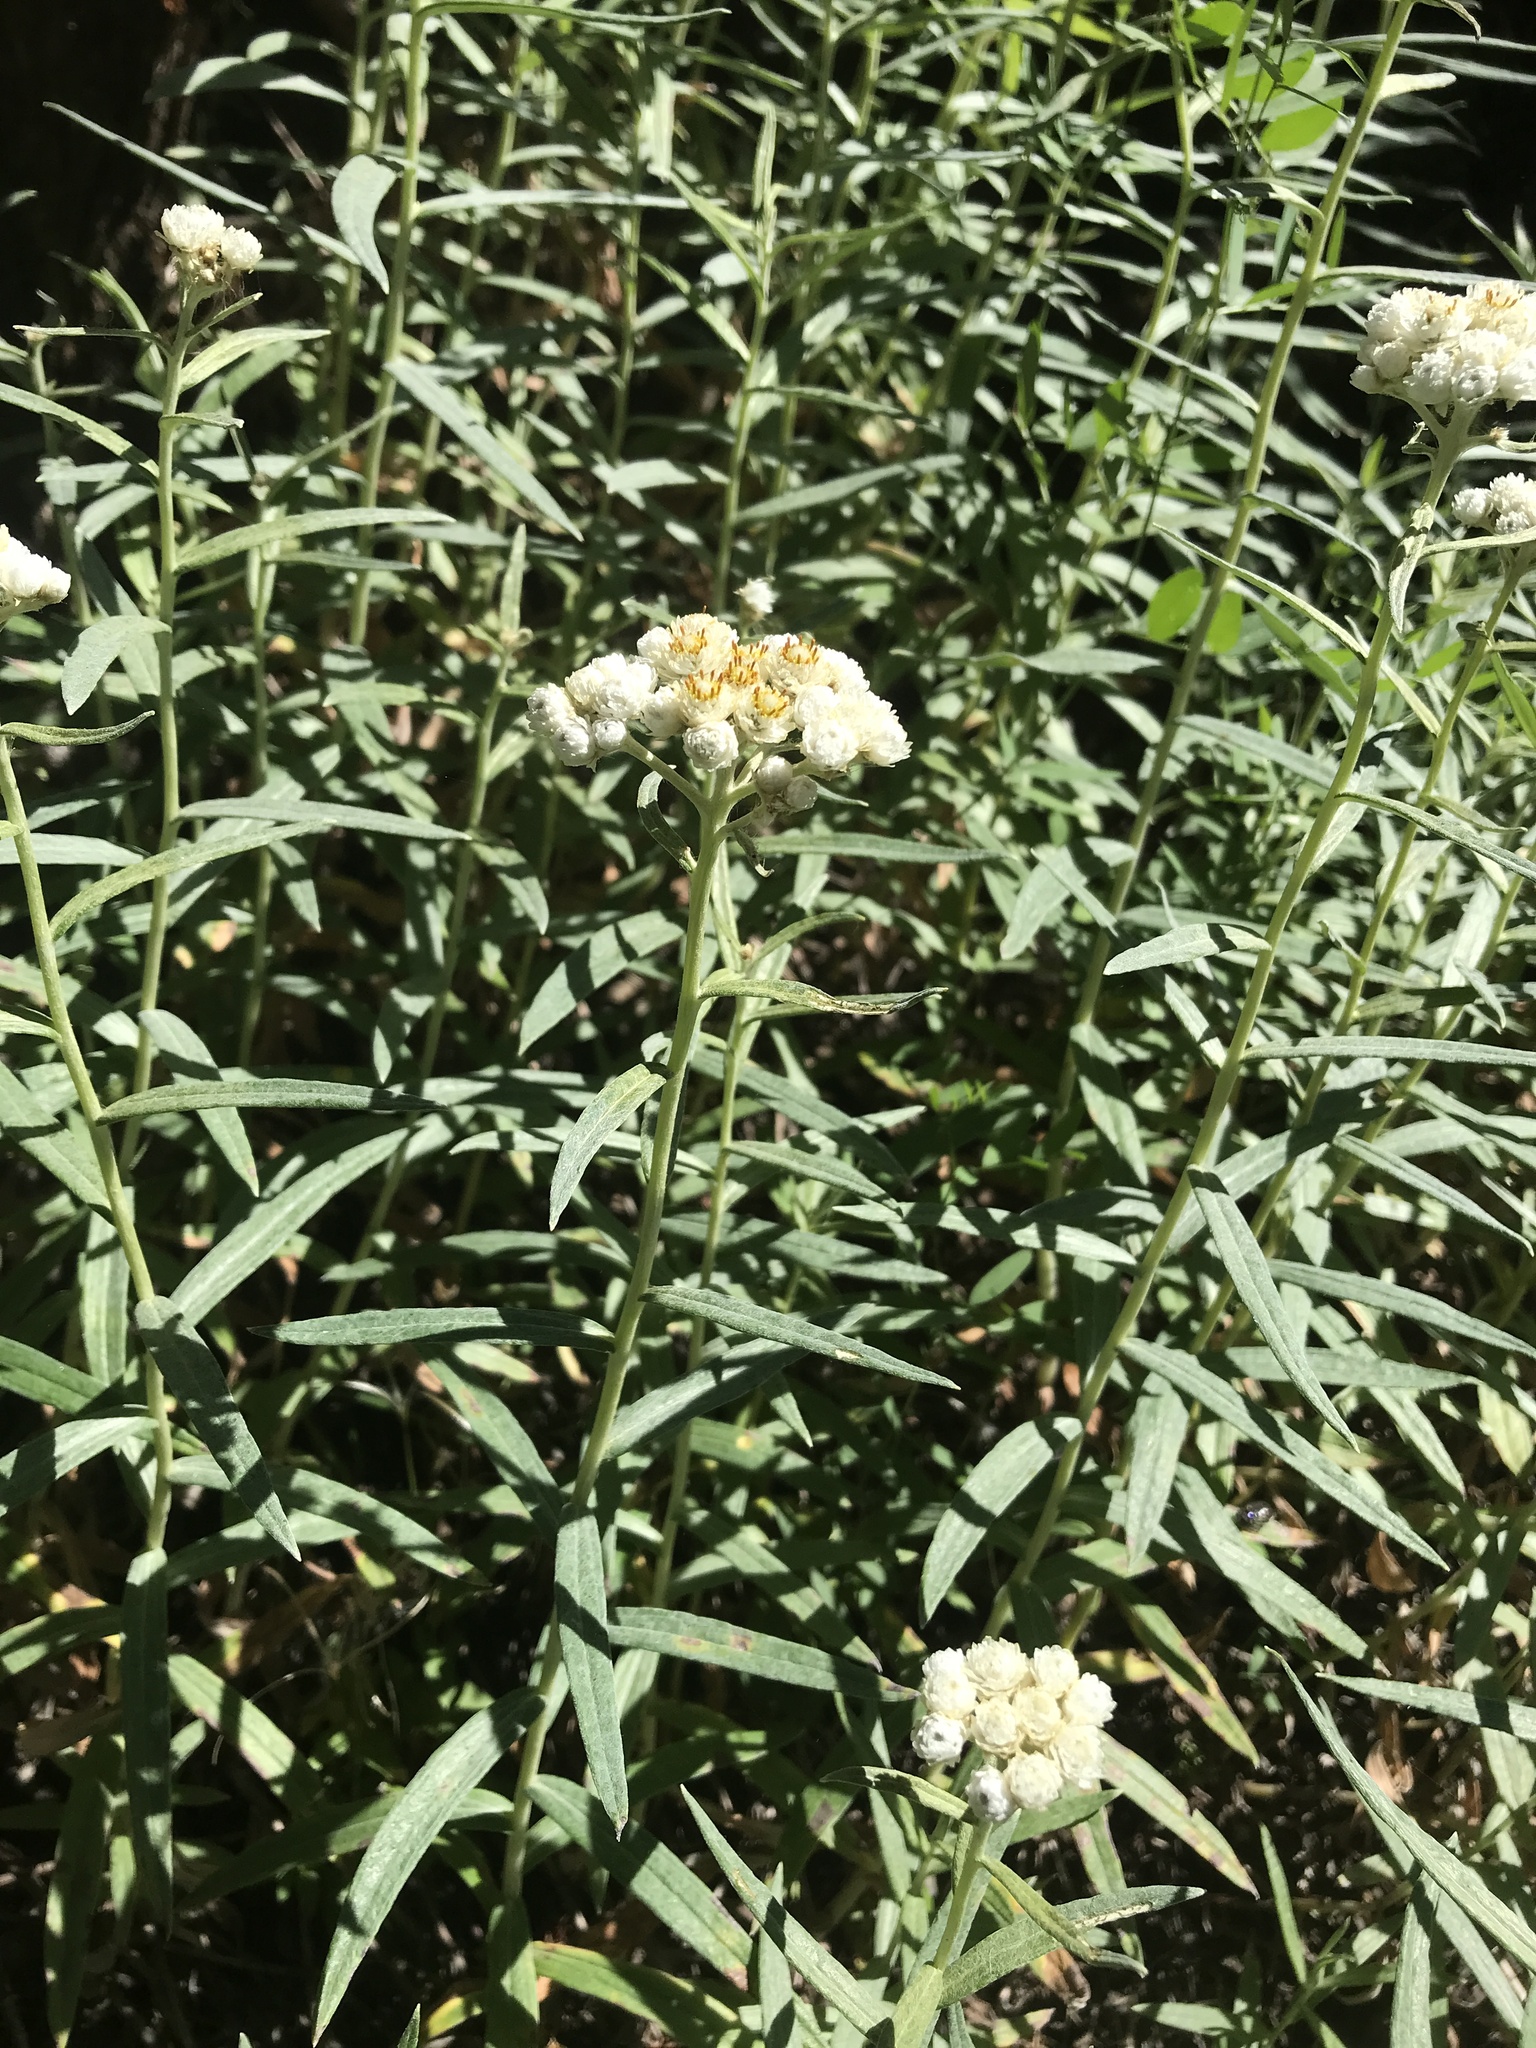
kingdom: Plantae
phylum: Tracheophyta
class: Magnoliopsida
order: Asterales
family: Asteraceae
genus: Anaphalis
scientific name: Anaphalis margaritacea
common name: Pearly everlasting
